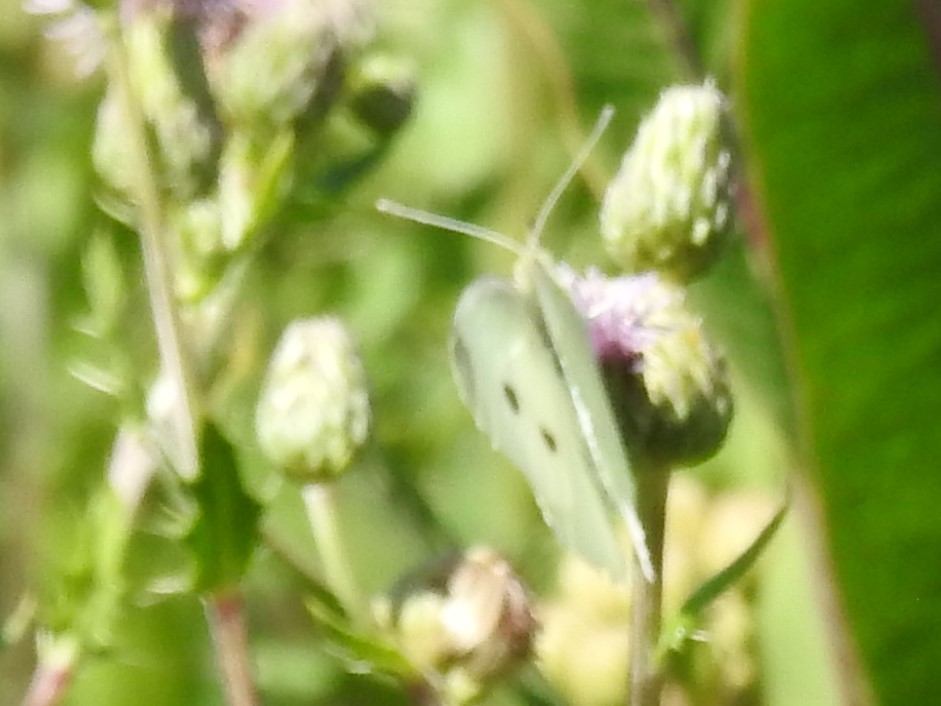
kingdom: Animalia
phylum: Arthropoda
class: Insecta
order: Lepidoptera
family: Pieridae
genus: Pieris
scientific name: Pieris rapae
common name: Small white
